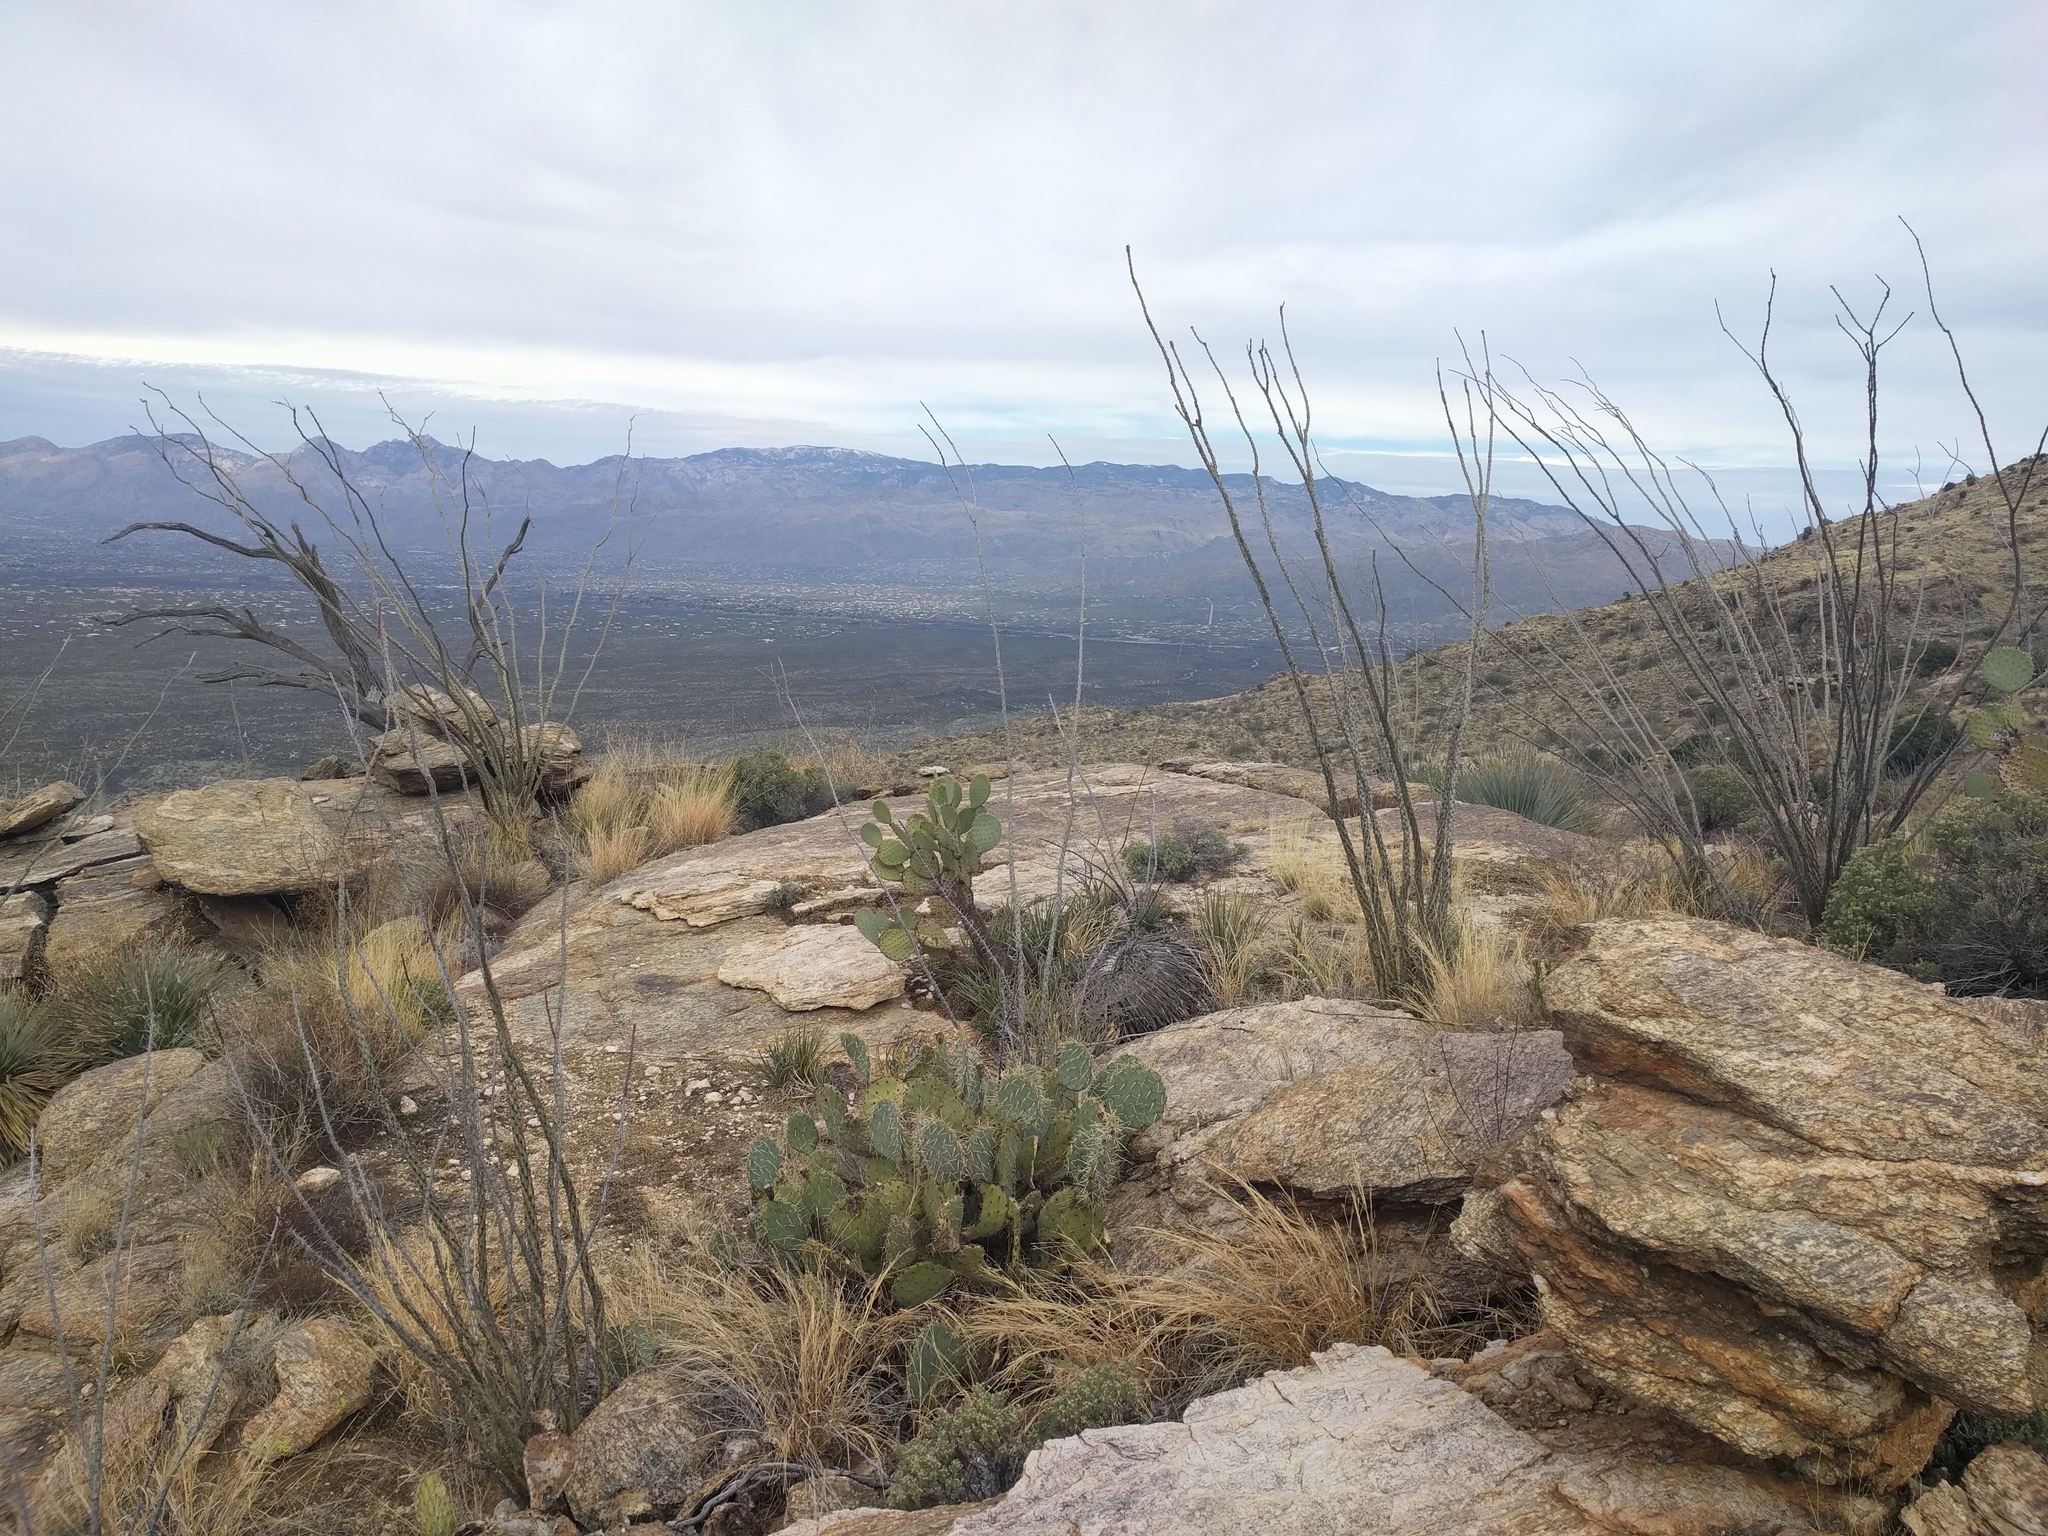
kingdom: Plantae
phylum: Tracheophyta
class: Magnoliopsida
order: Ericales
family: Fouquieriaceae
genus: Fouquieria
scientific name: Fouquieria splendens
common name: Vine-cactus
